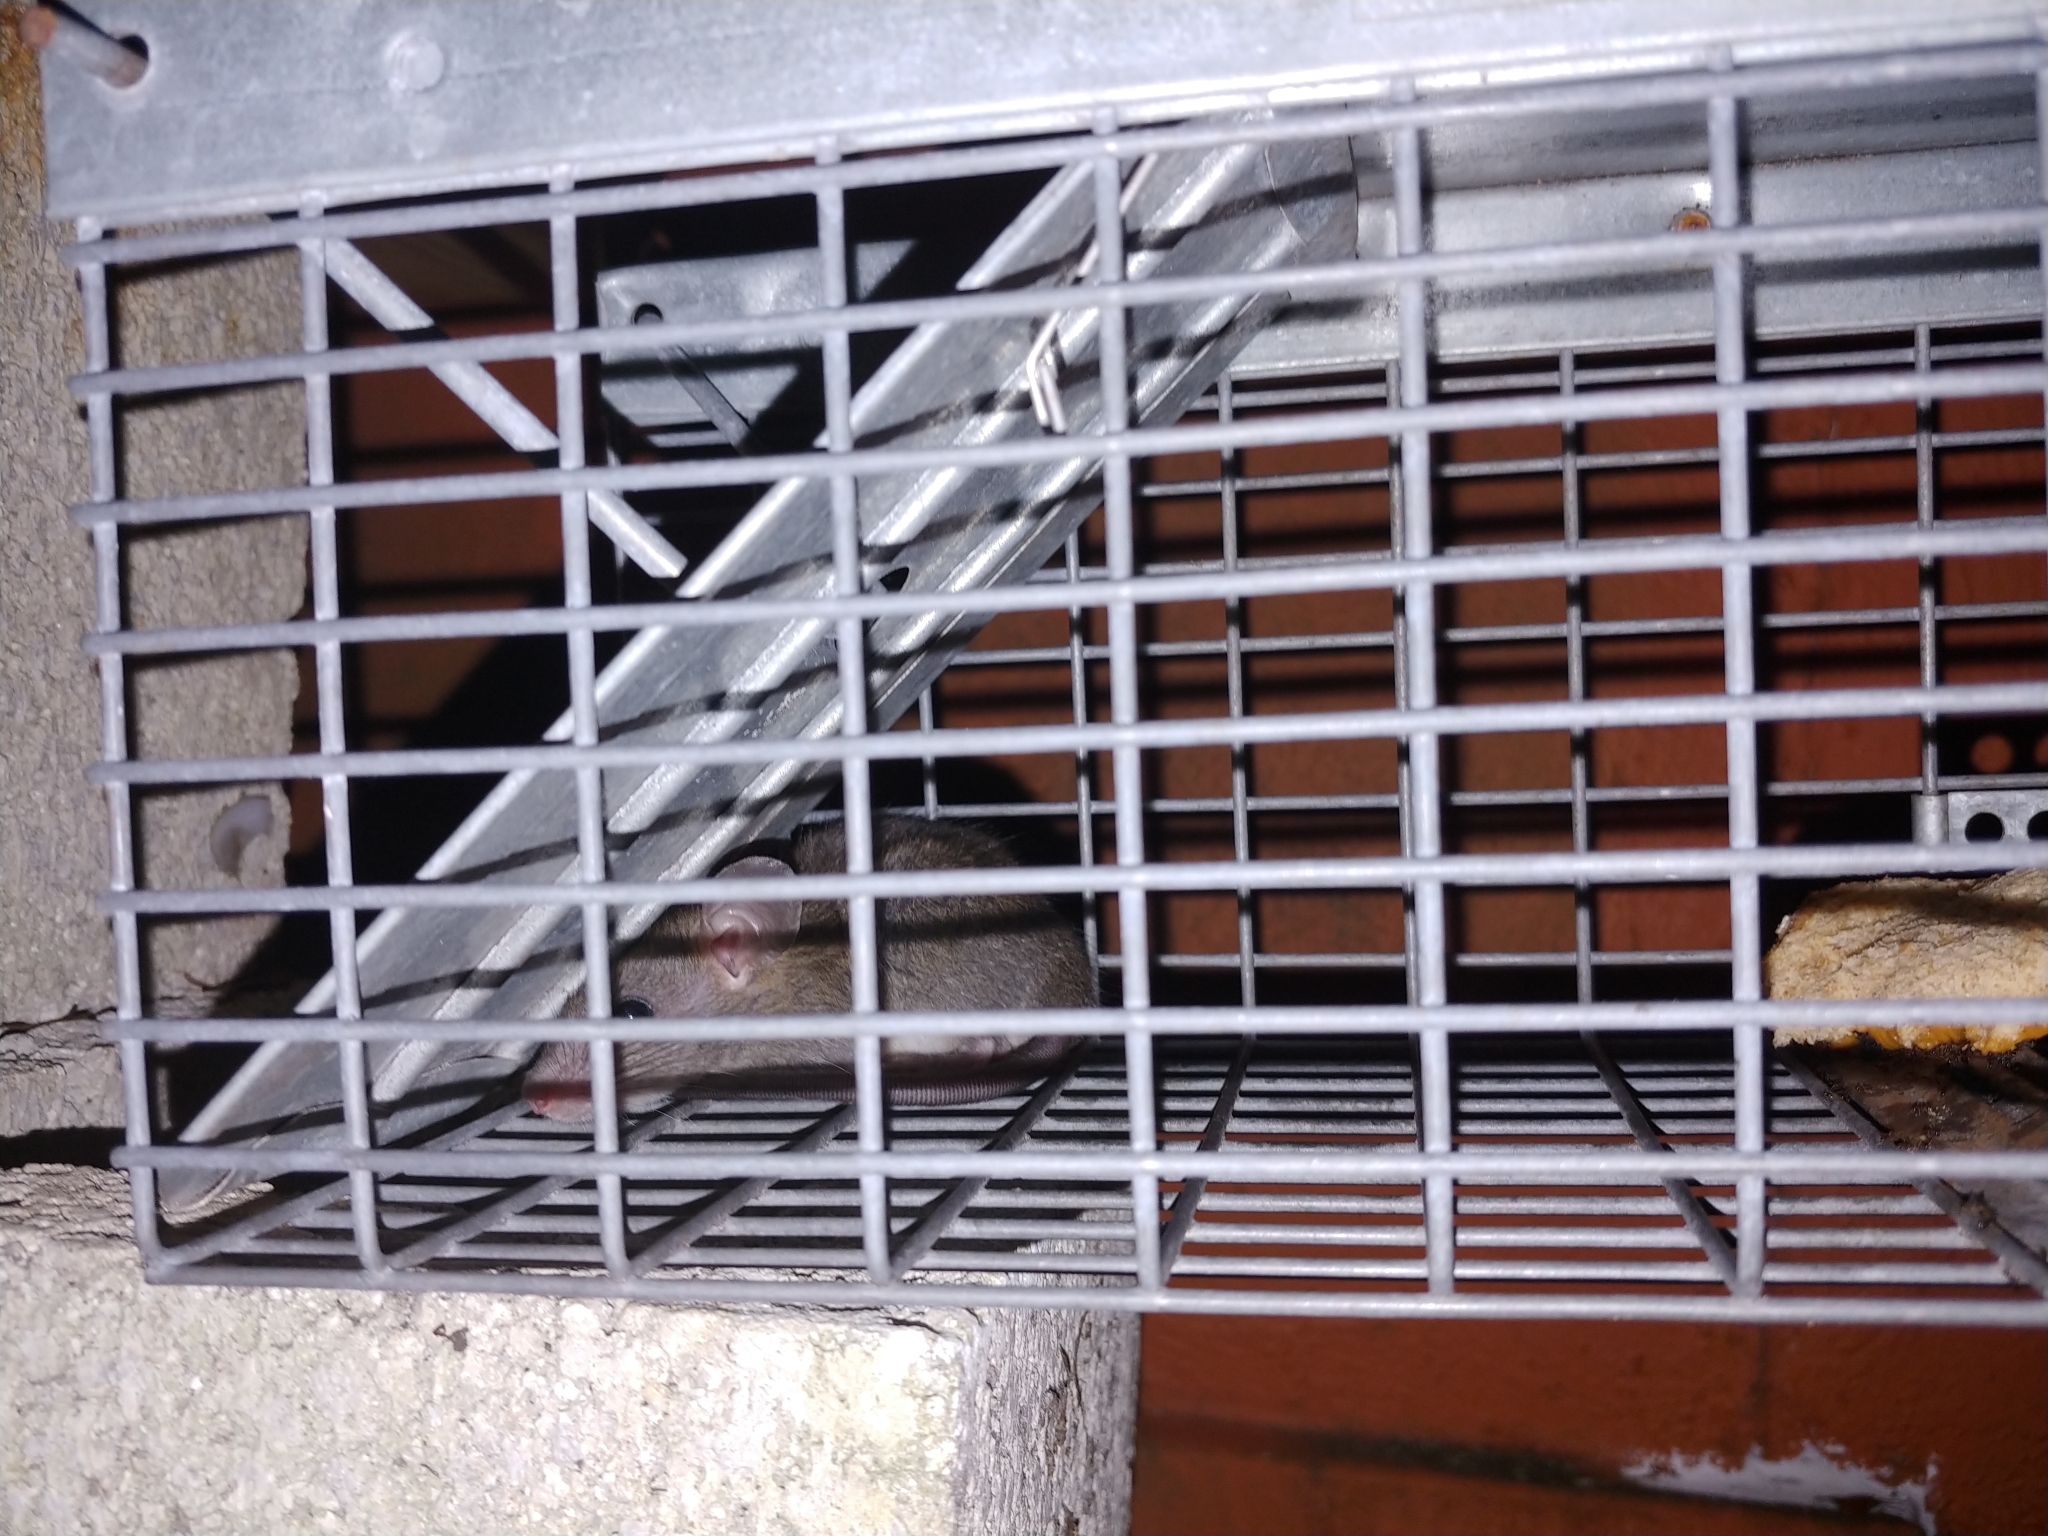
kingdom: Animalia
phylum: Chordata
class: Mammalia
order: Rodentia
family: Muridae
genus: Rattus
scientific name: Rattus rattus
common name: Black rat
